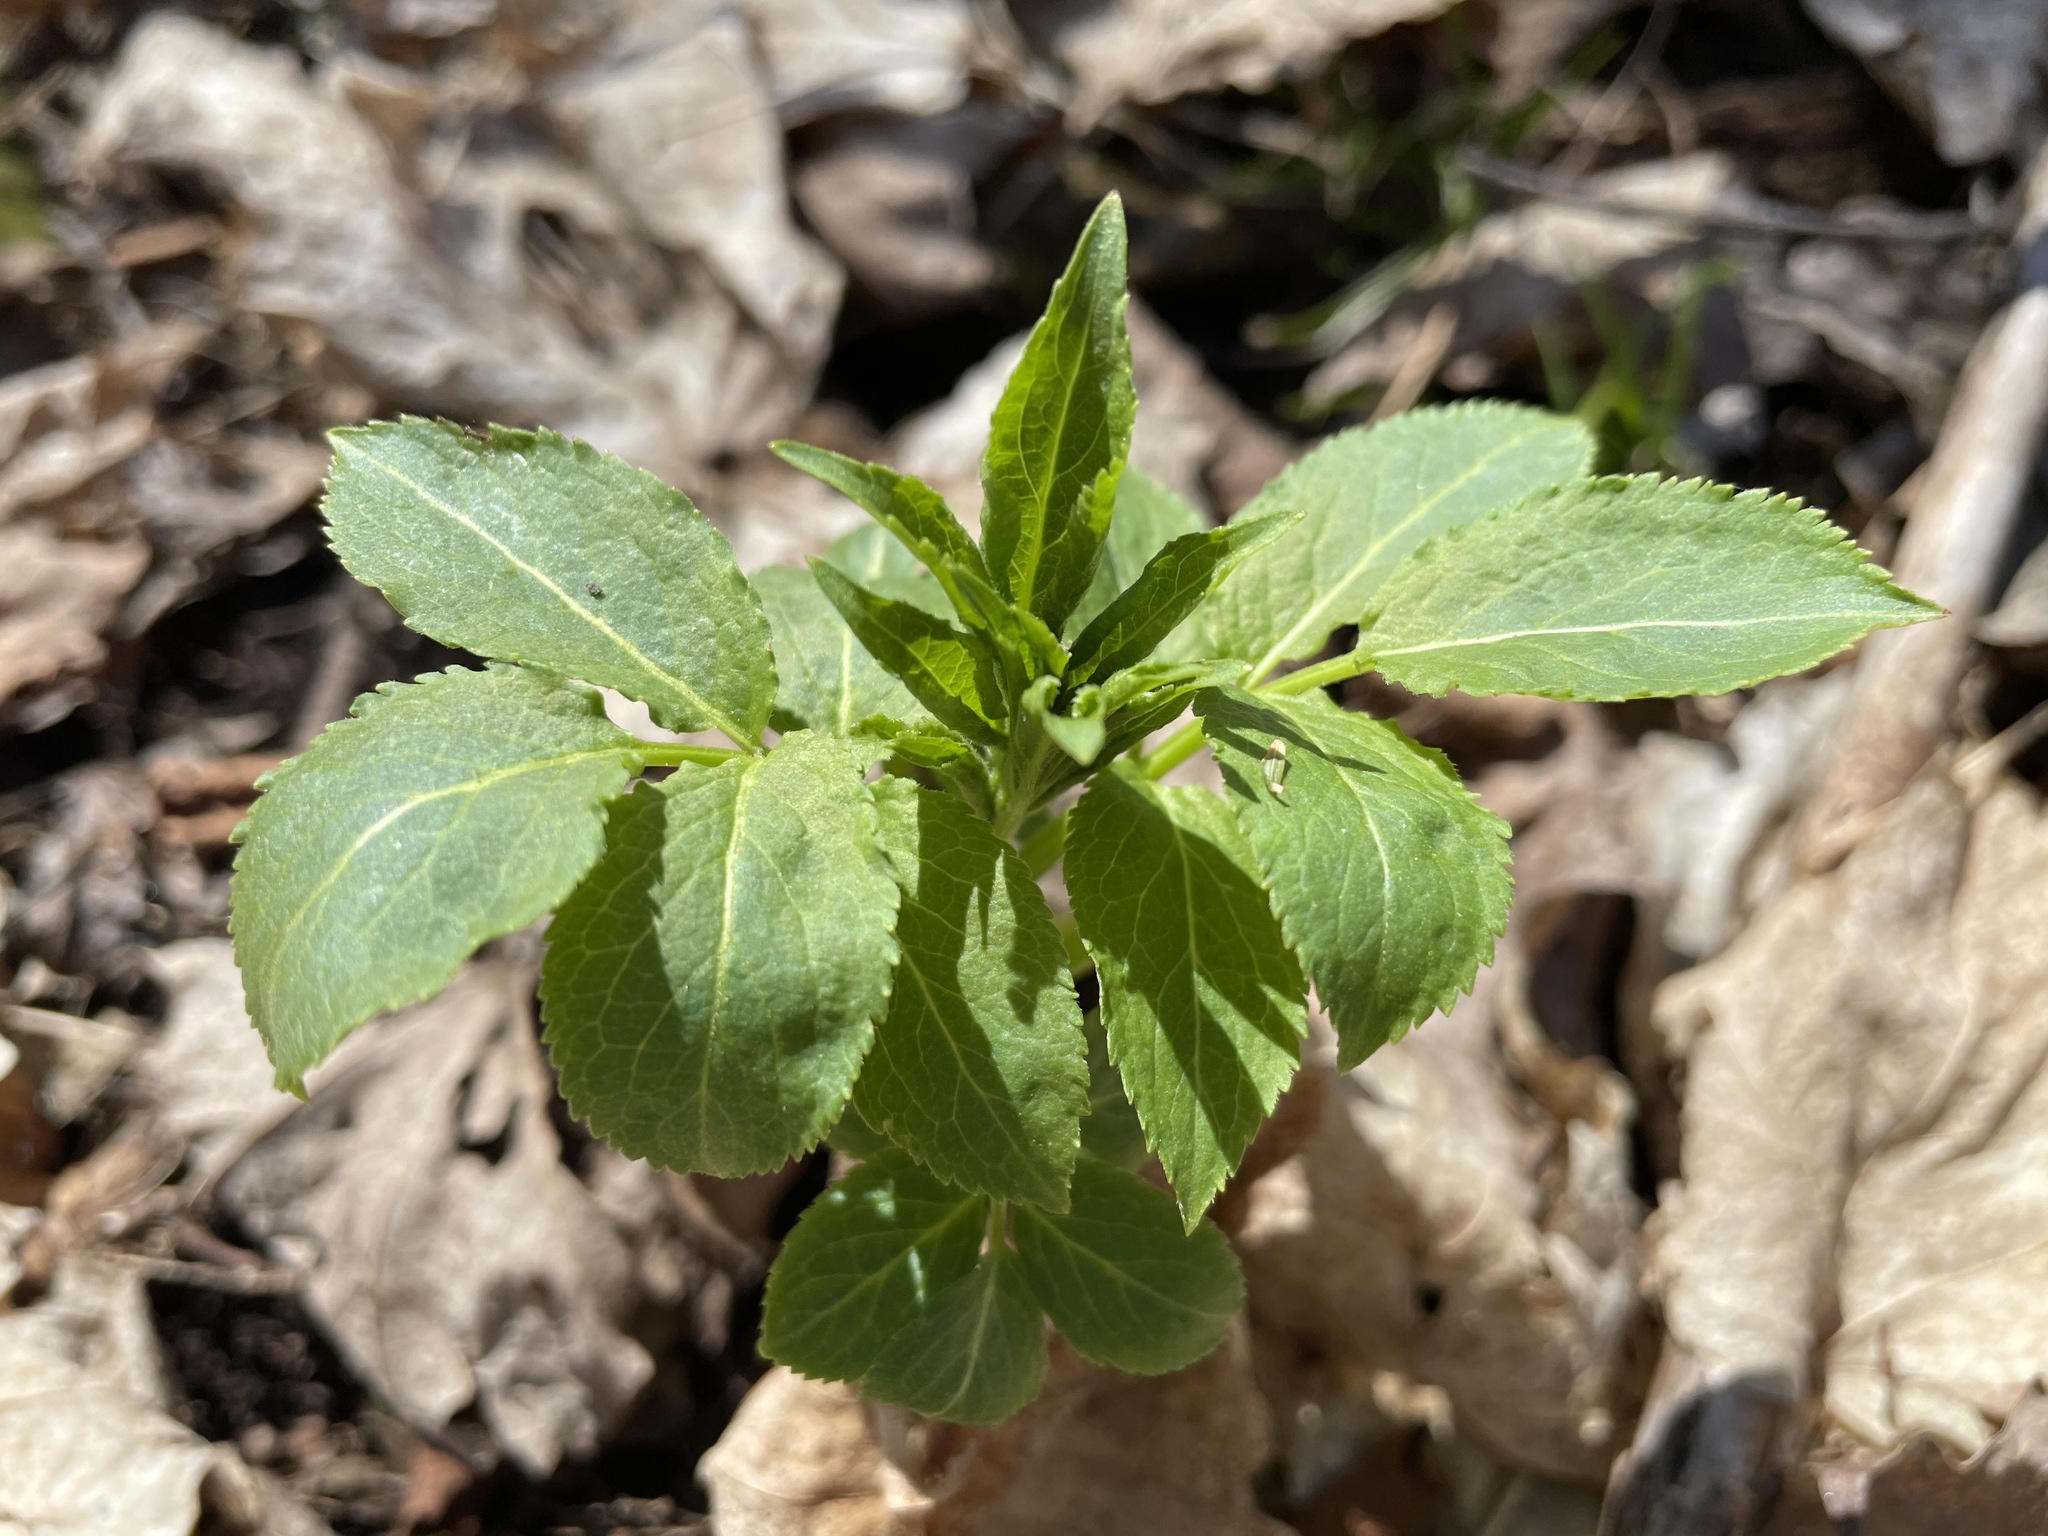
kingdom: Plantae
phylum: Tracheophyta
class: Magnoliopsida
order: Dipsacales
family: Viburnaceae
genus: Sambucus
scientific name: Sambucus
